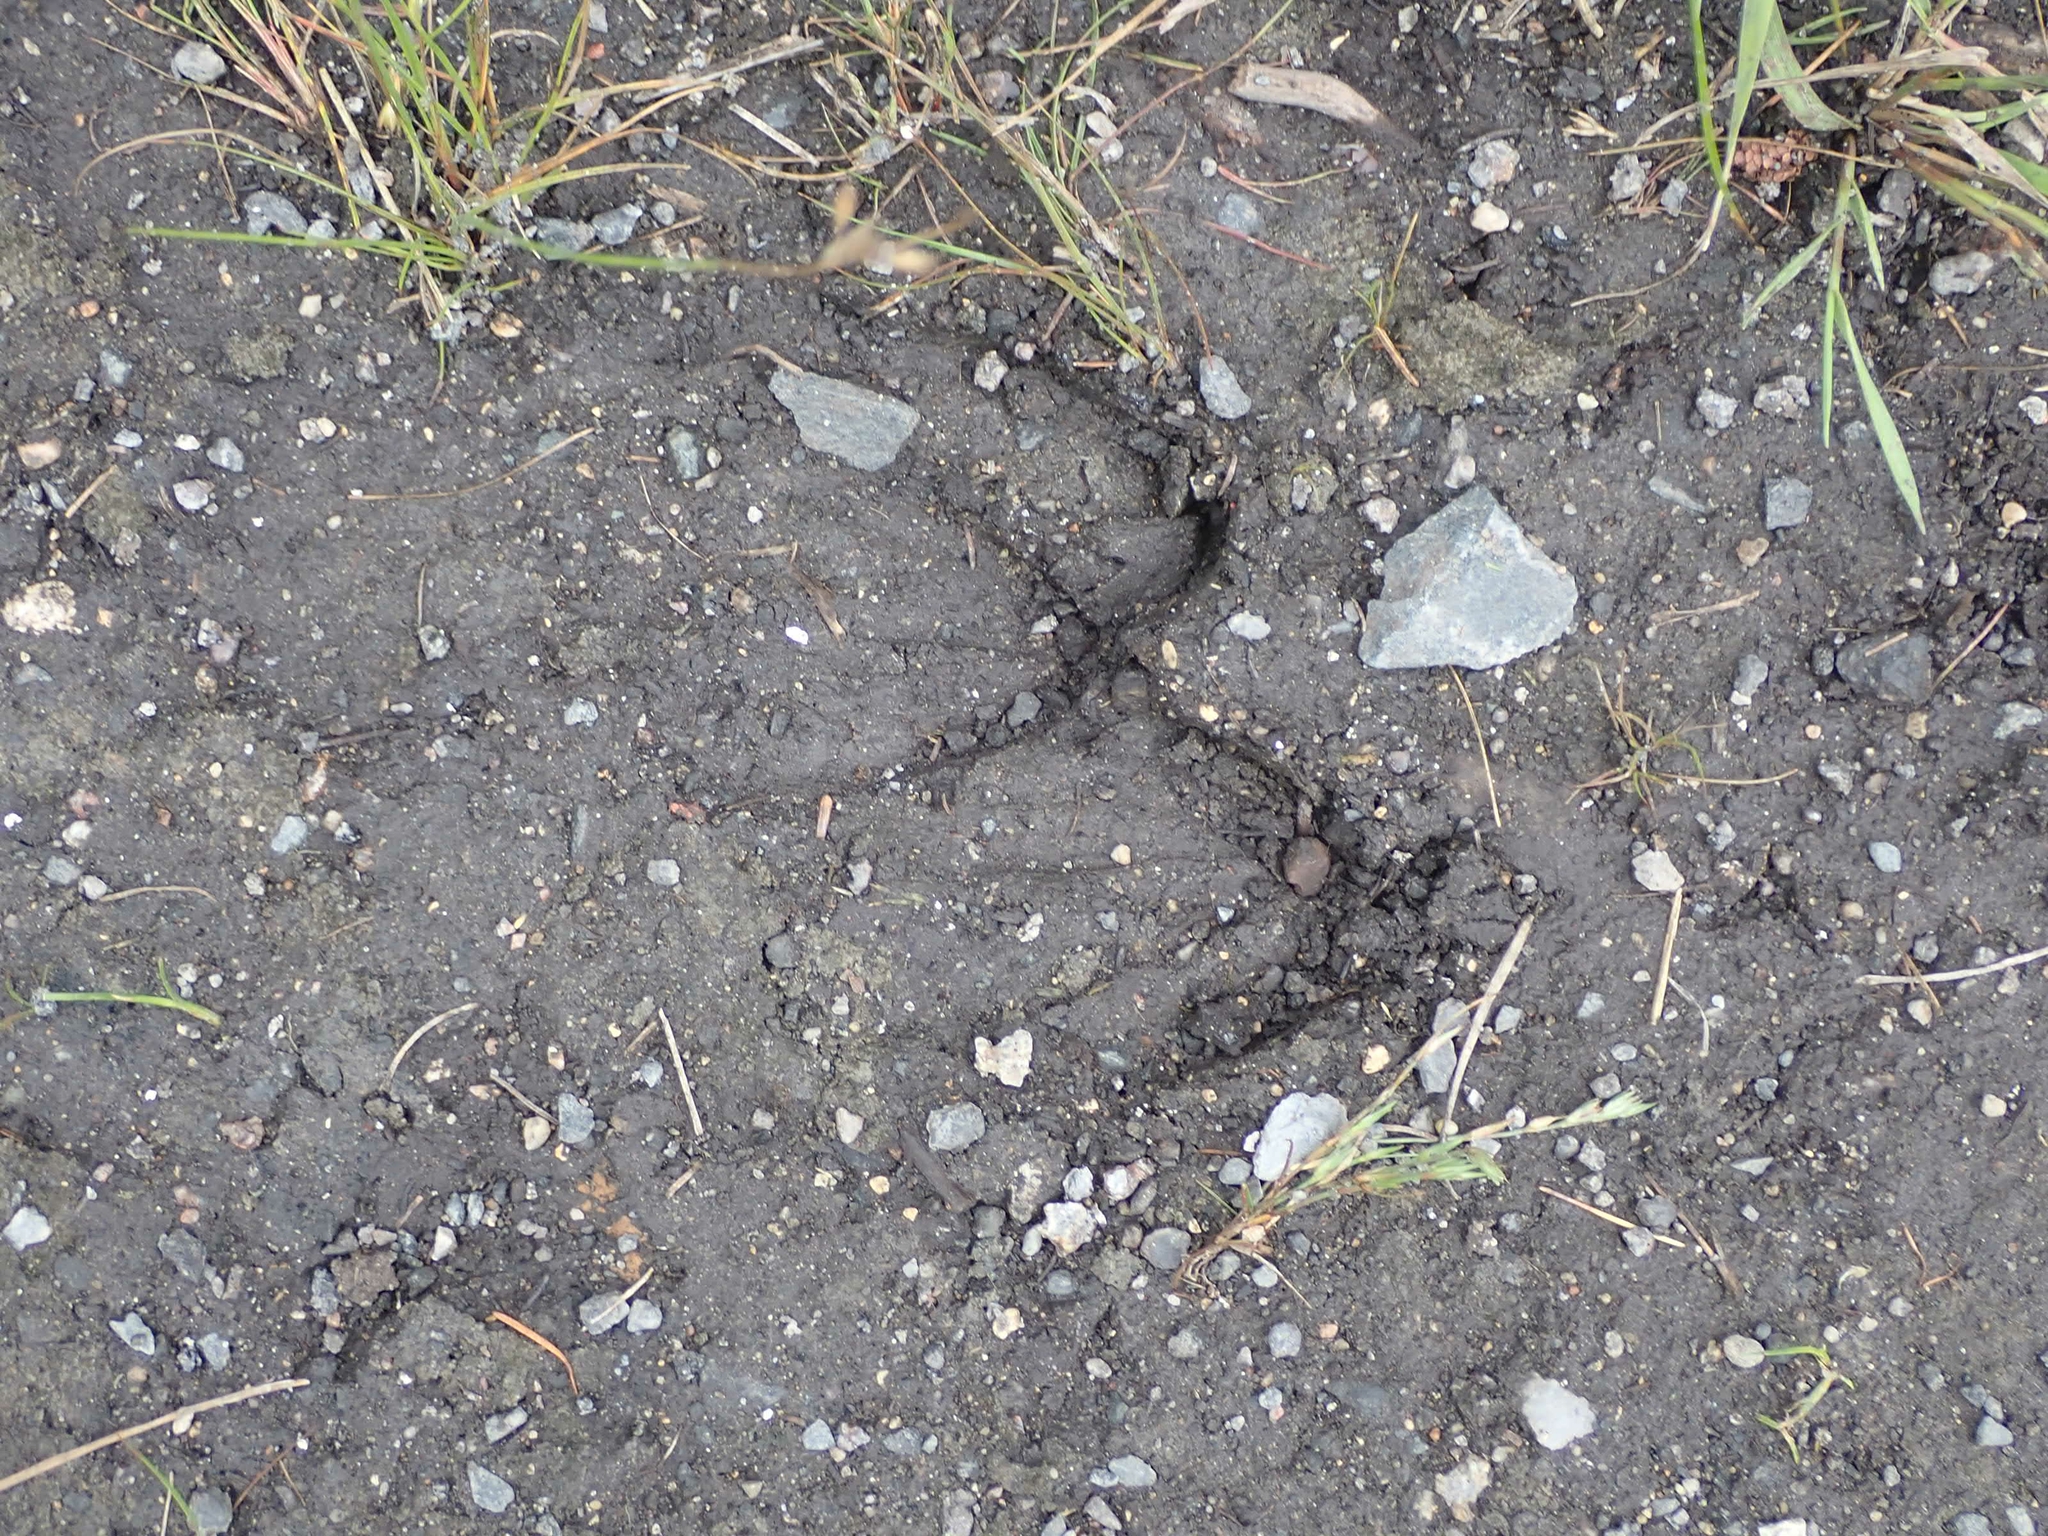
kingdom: Animalia
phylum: Chordata
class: Mammalia
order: Artiodactyla
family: Cervidae
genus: Odocoileus
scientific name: Odocoileus virginianus
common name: White-tailed deer
